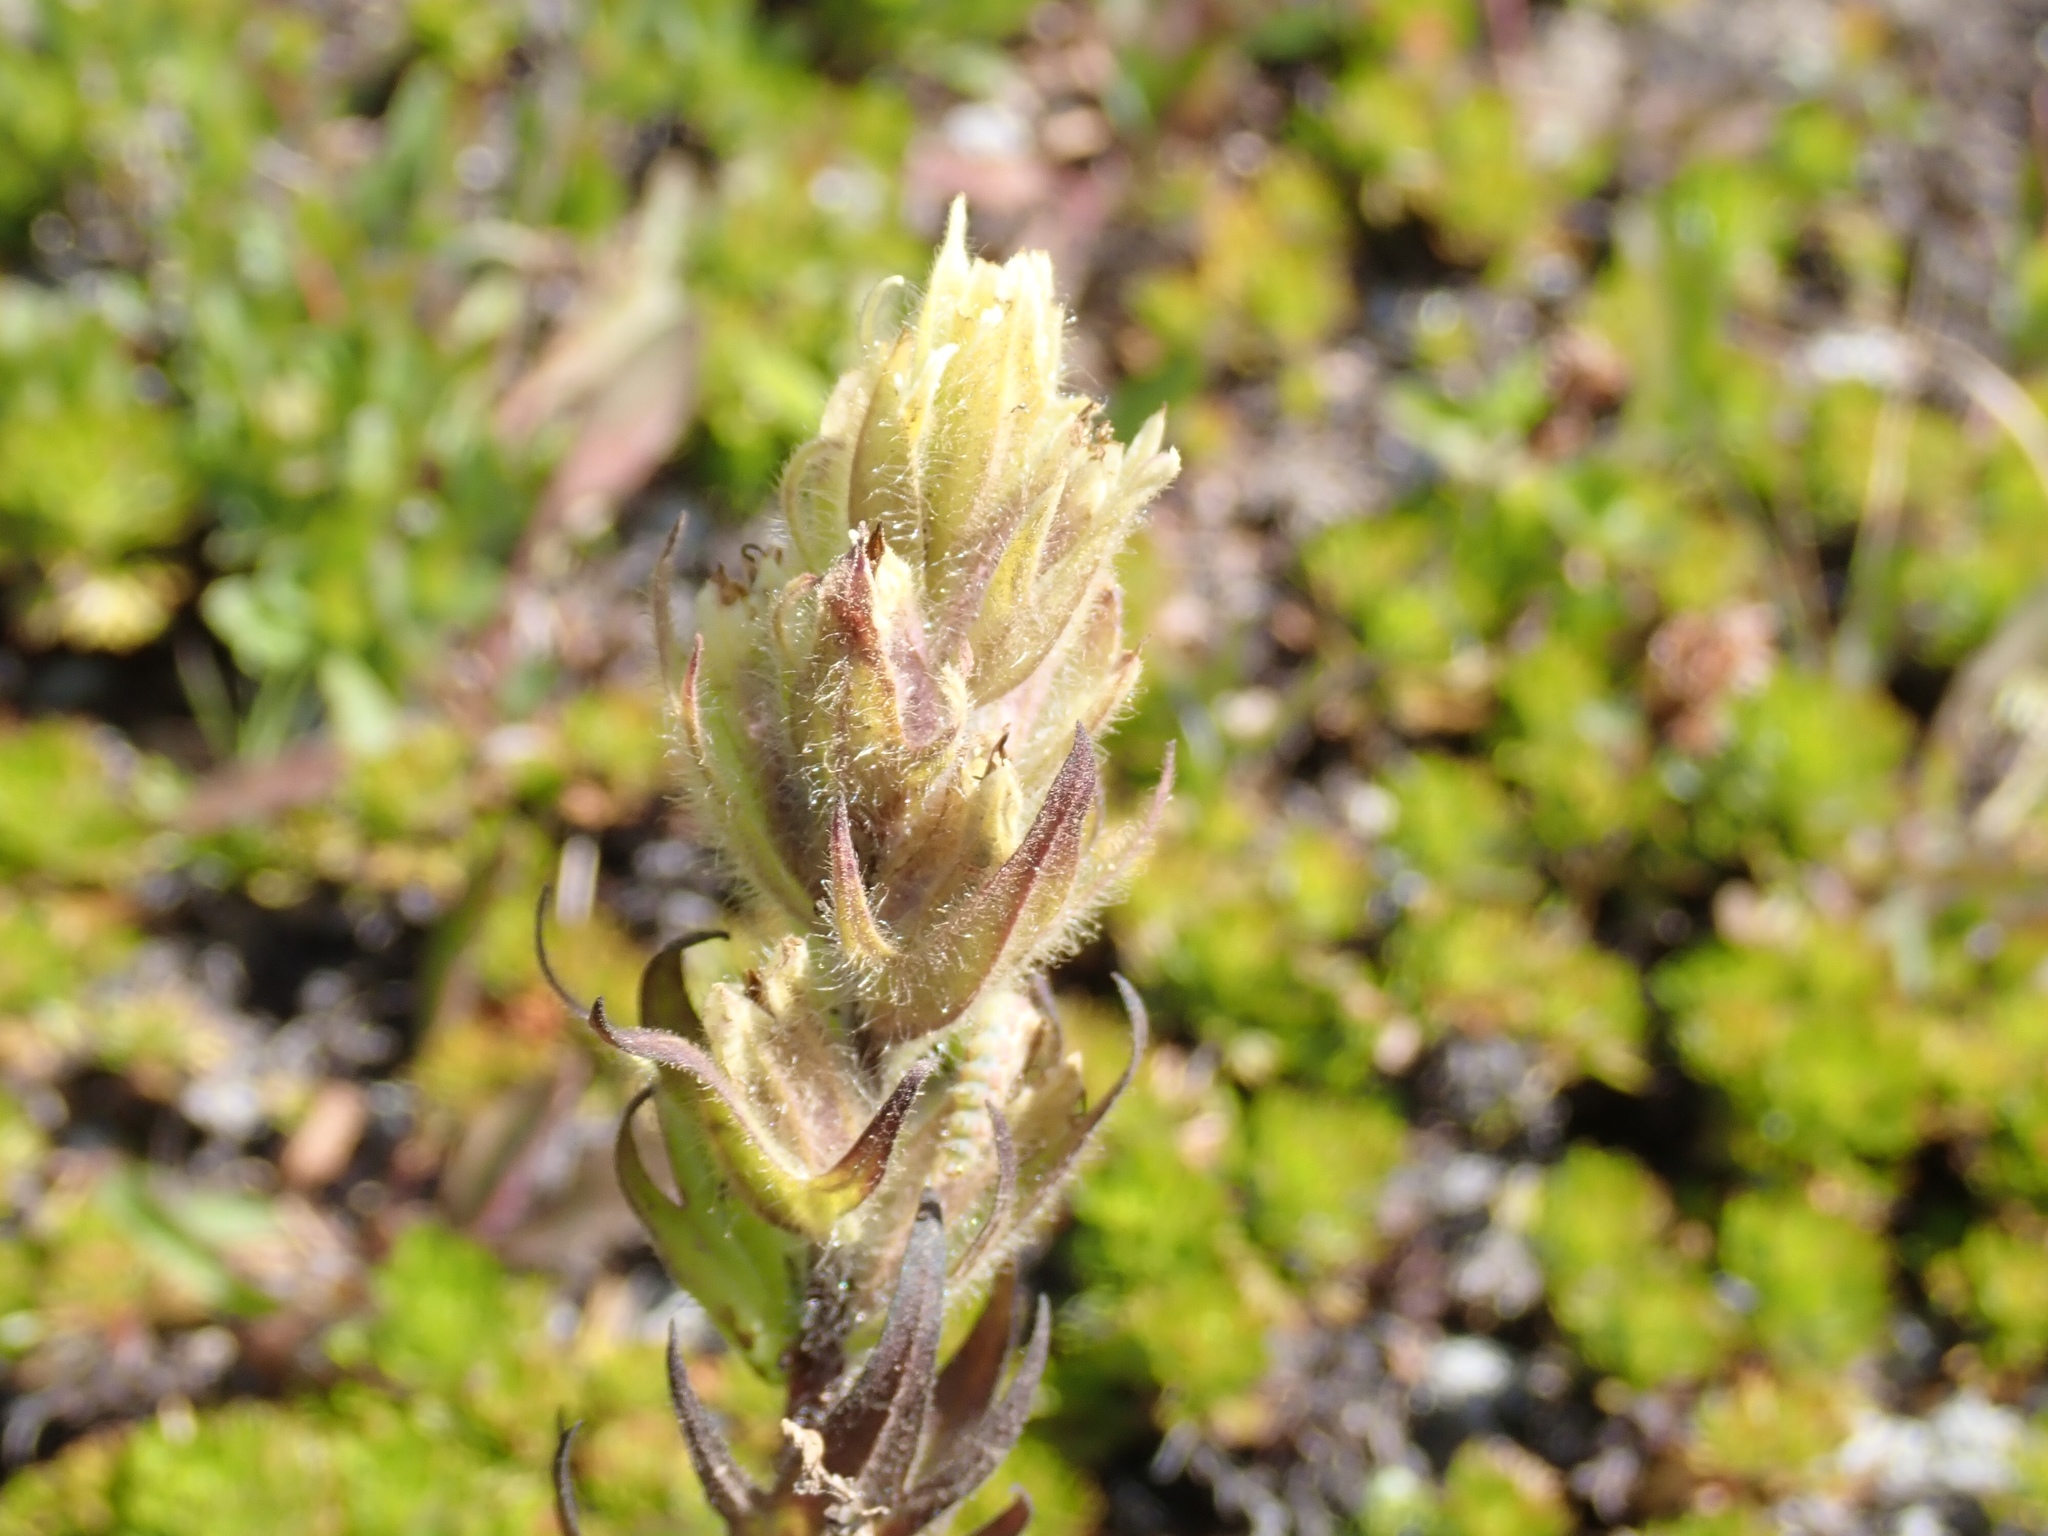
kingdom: Plantae
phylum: Tracheophyta
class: Magnoliopsida
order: Lamiales
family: Orobanchaceae
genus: Castilleja
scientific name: Castilleja parviflora
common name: Mountain paintbrush
